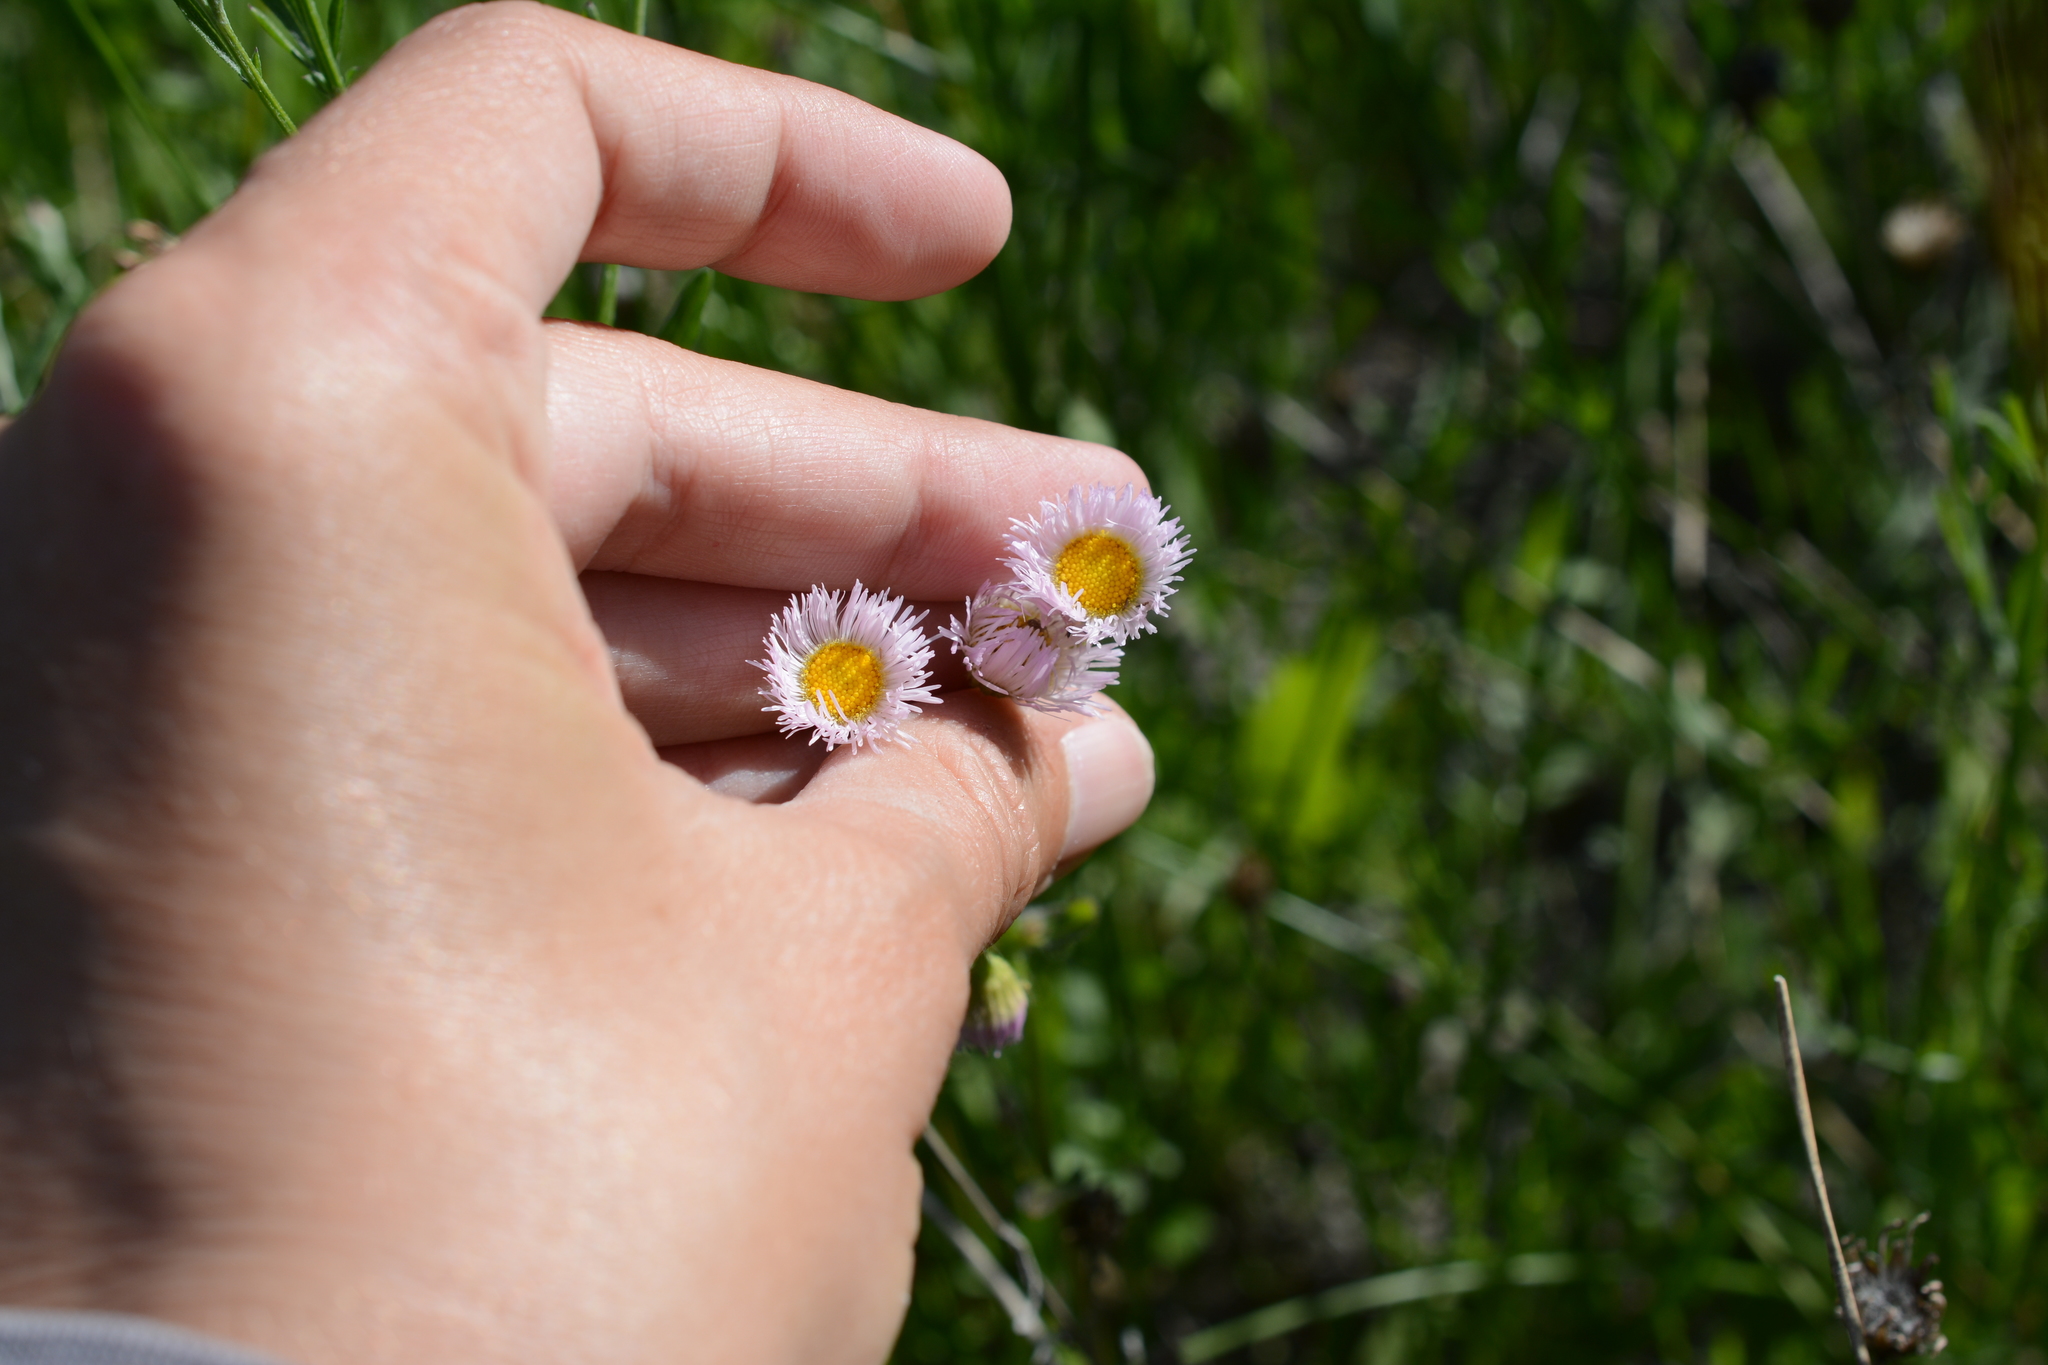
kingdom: Plantae
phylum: Tracheophyta
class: Magnoliopsida
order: Asterales
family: Asteraceae
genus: Erigeron
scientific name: Erigeron philadelphicus
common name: Robin's-plantain
